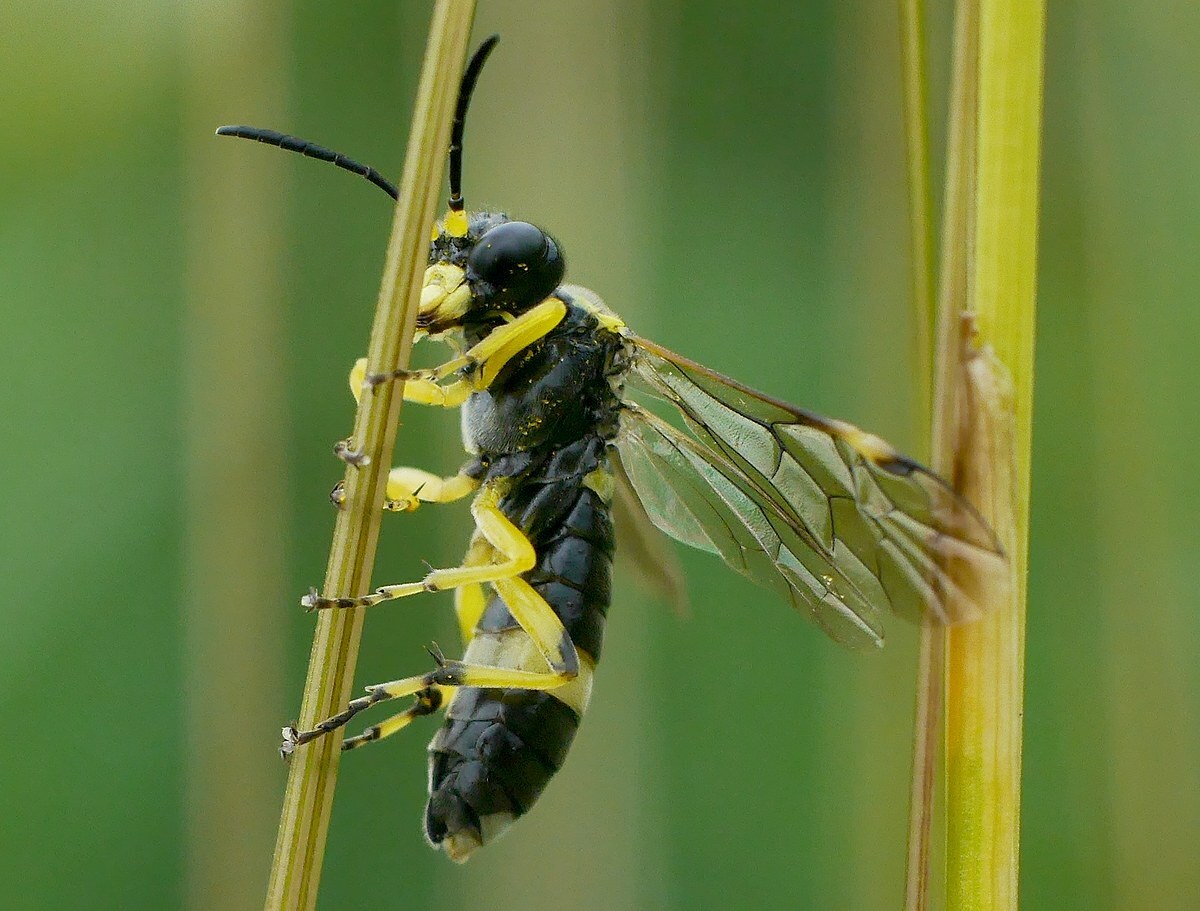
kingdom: Animalia
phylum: Arthropoda
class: Insecta
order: Hymenoptera
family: Tenthredinidae
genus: Tenthredo
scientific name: Tenthredo zonula
